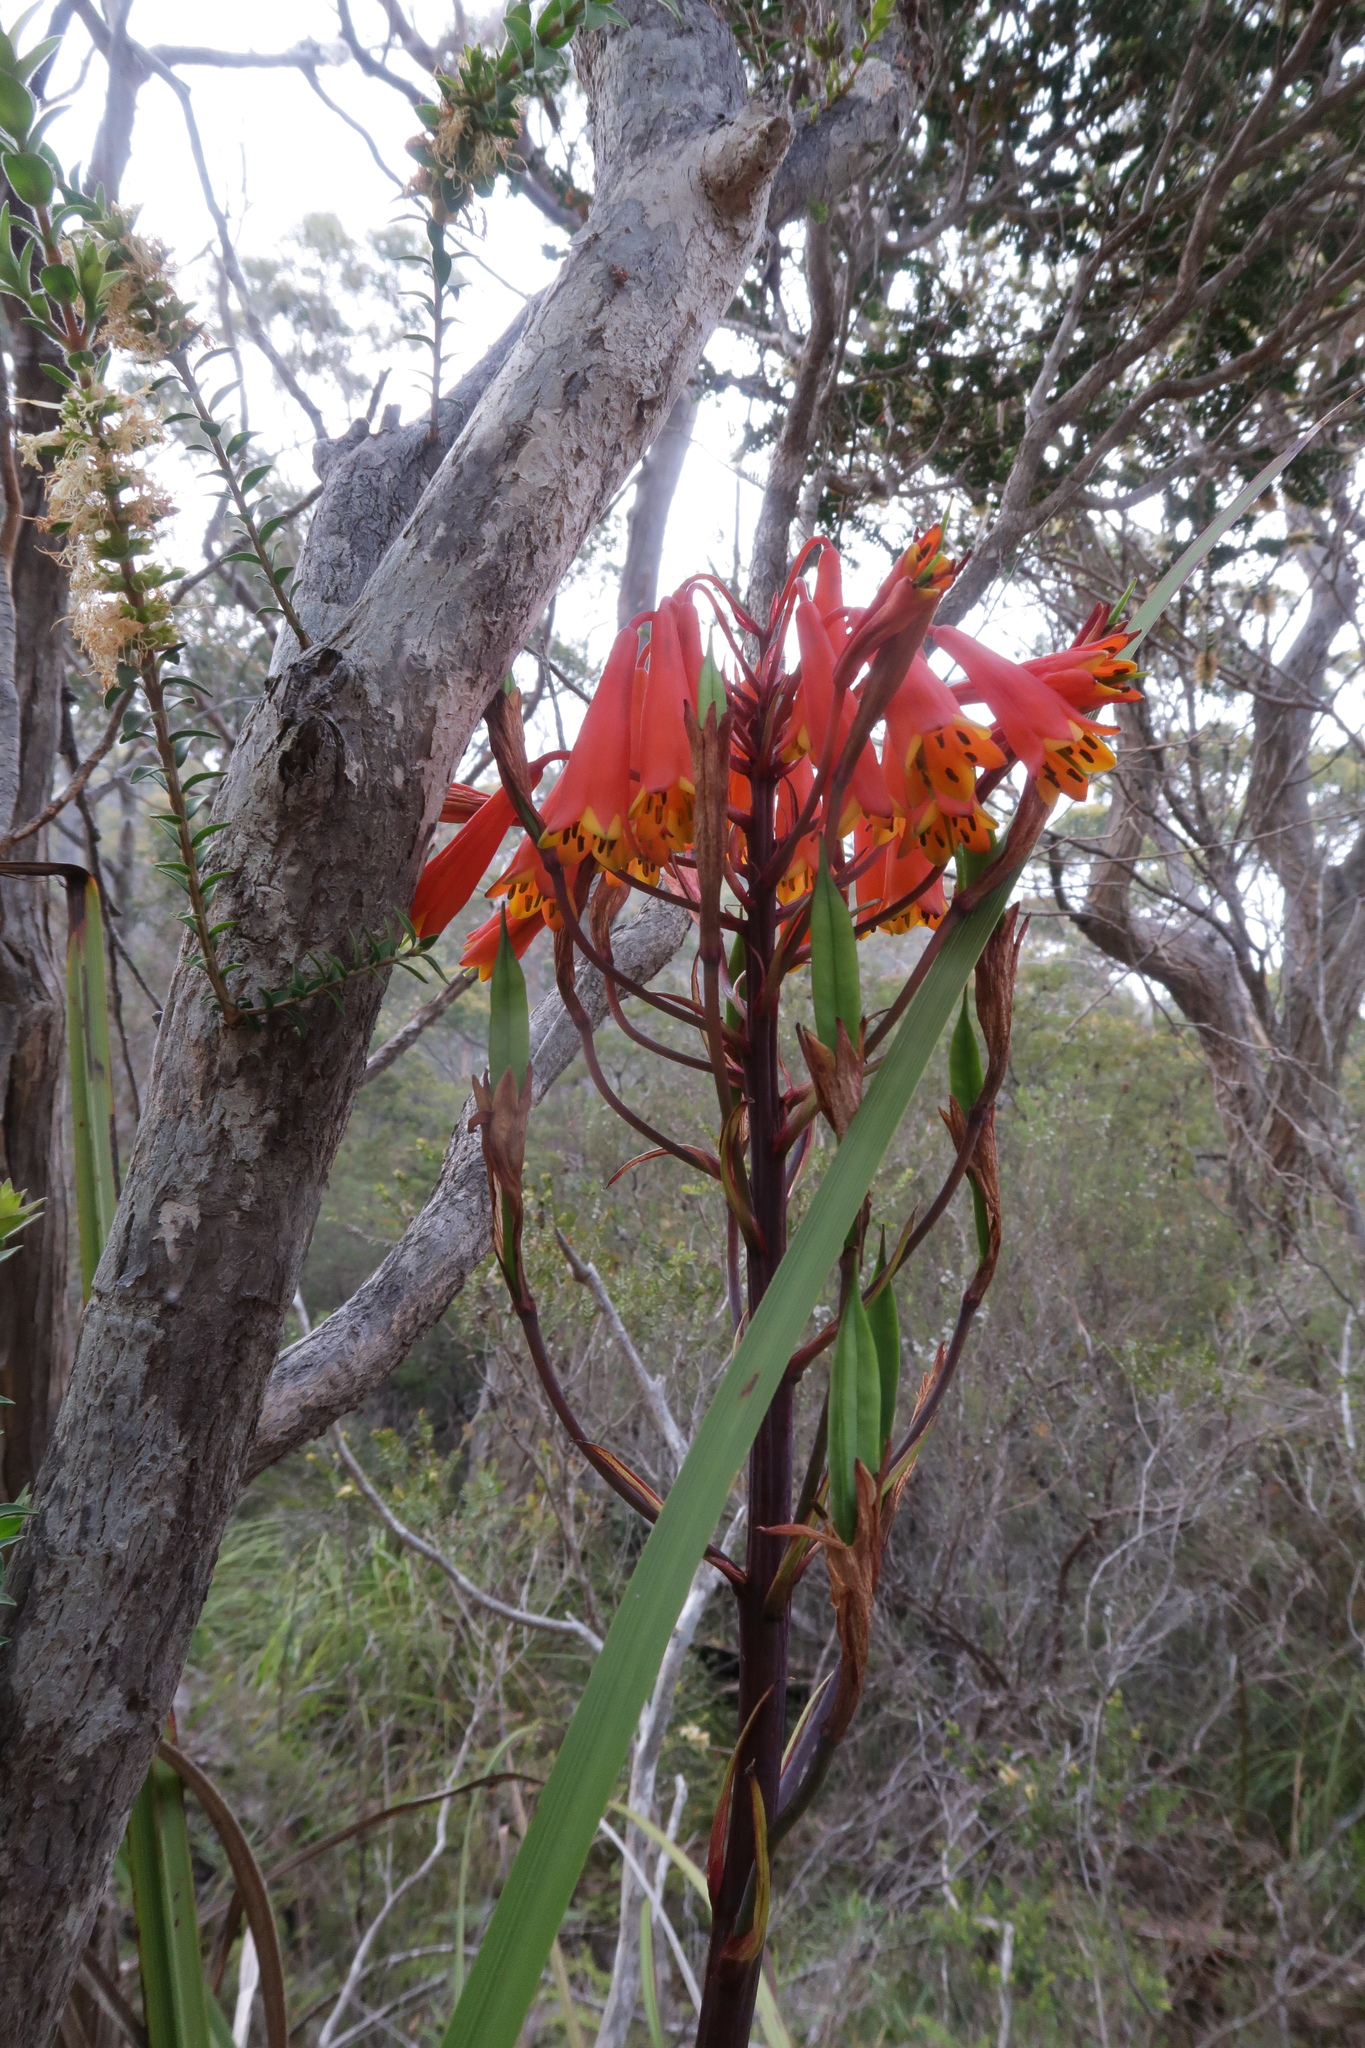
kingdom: Plantae
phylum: Tracheophyta
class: Liliopsida
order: Asparagales
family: Blandfordiaceae
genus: Blandfordia
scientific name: Blandfordia punicea
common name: Tasmanian christmas-bell
